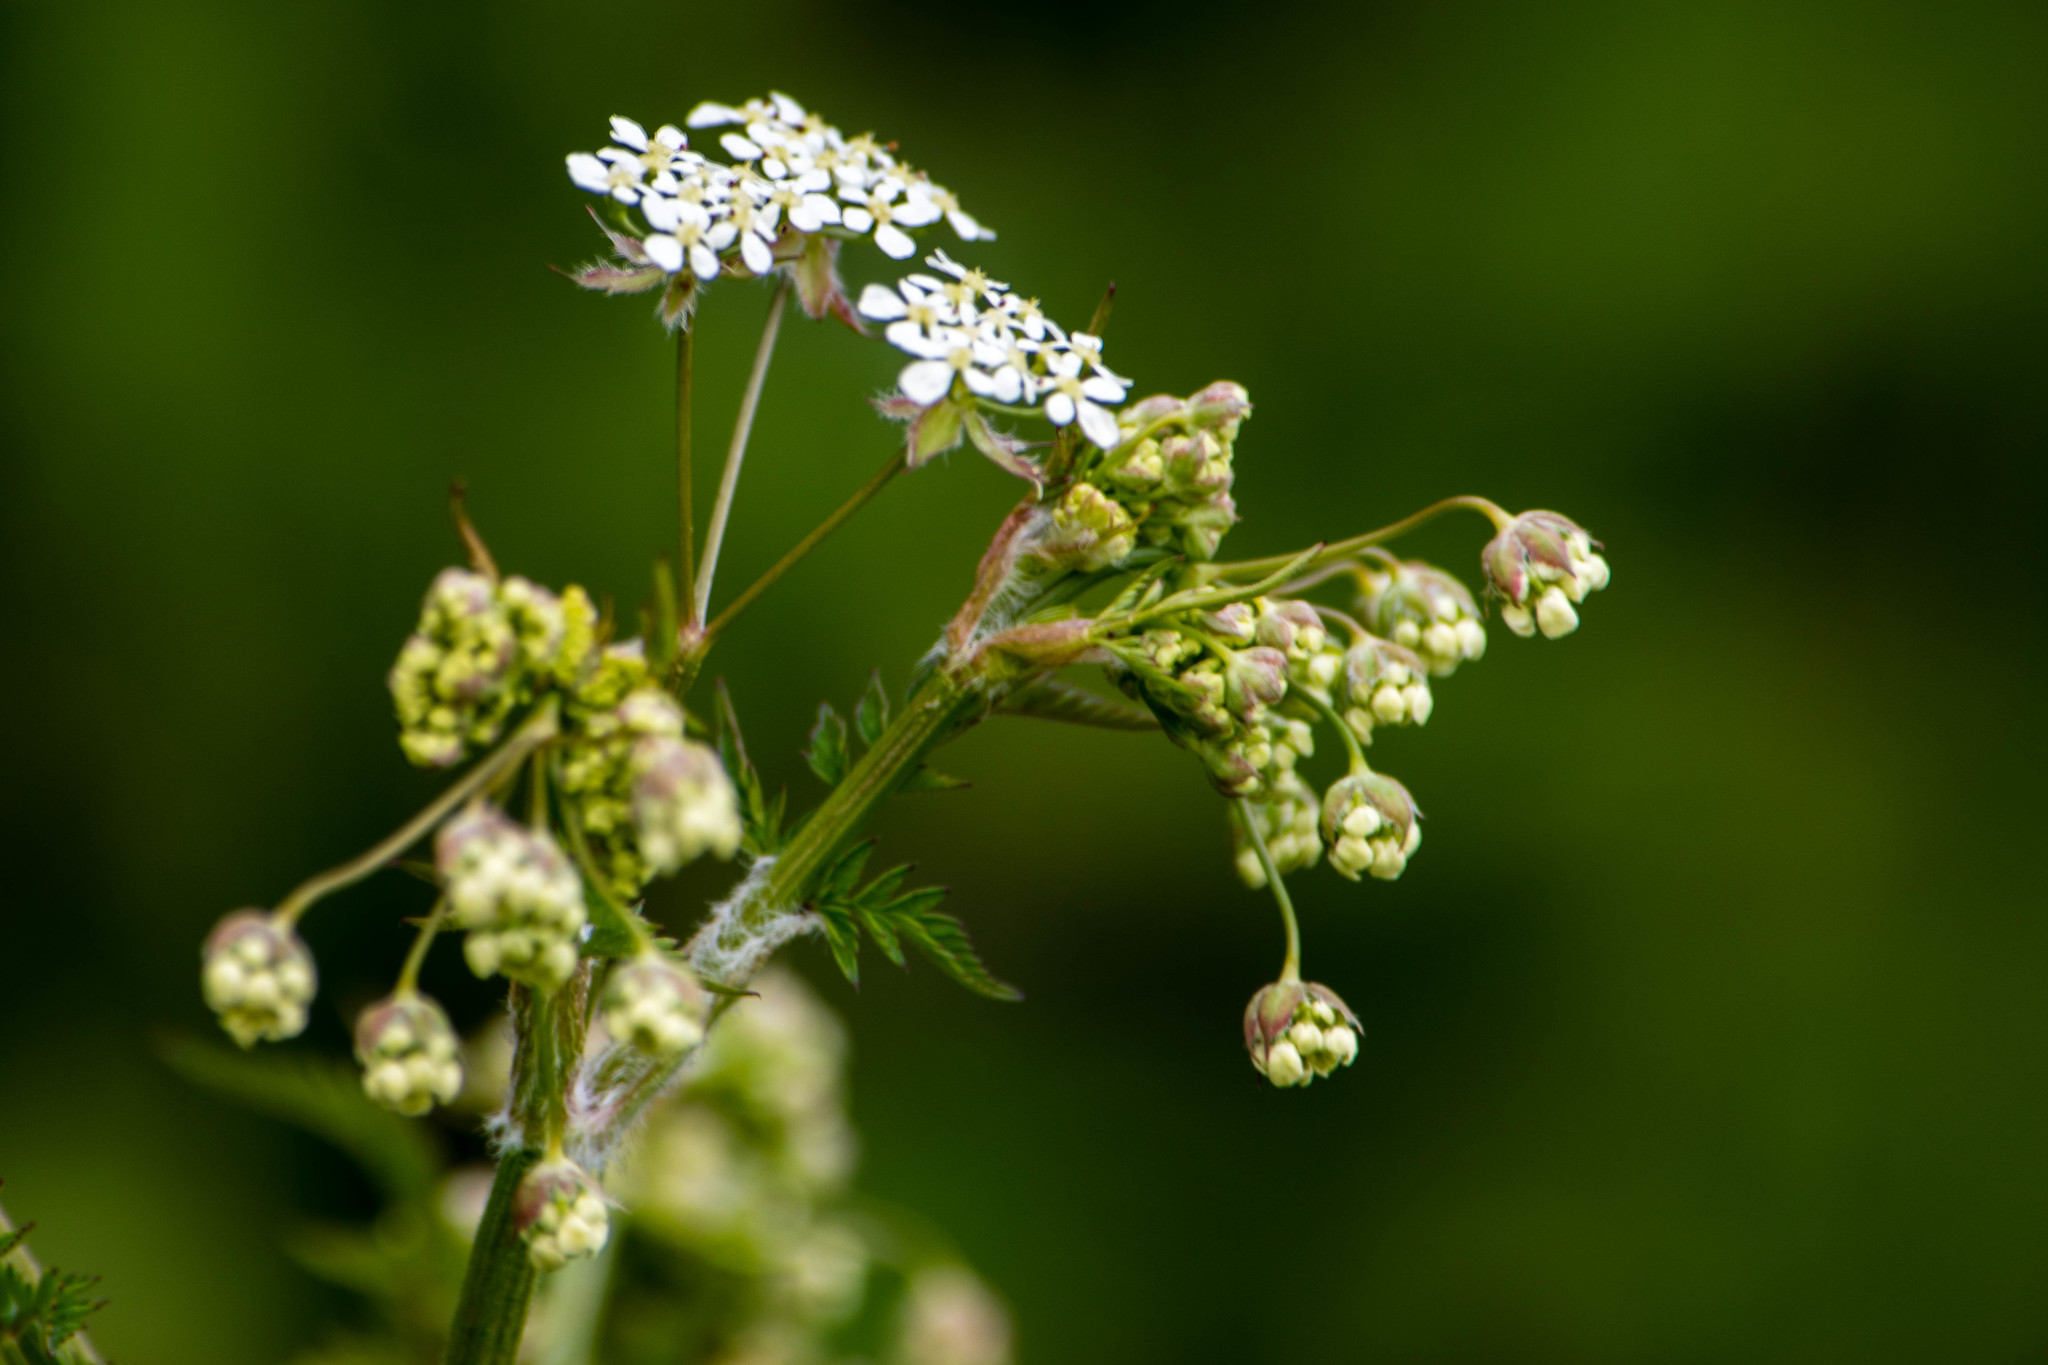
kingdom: Plantae
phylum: Tracheophyta
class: Magnoliopsida
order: Apiales
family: Apiaceae
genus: Anthriscus
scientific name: Anthriscus sylvestris
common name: Cow parsley
